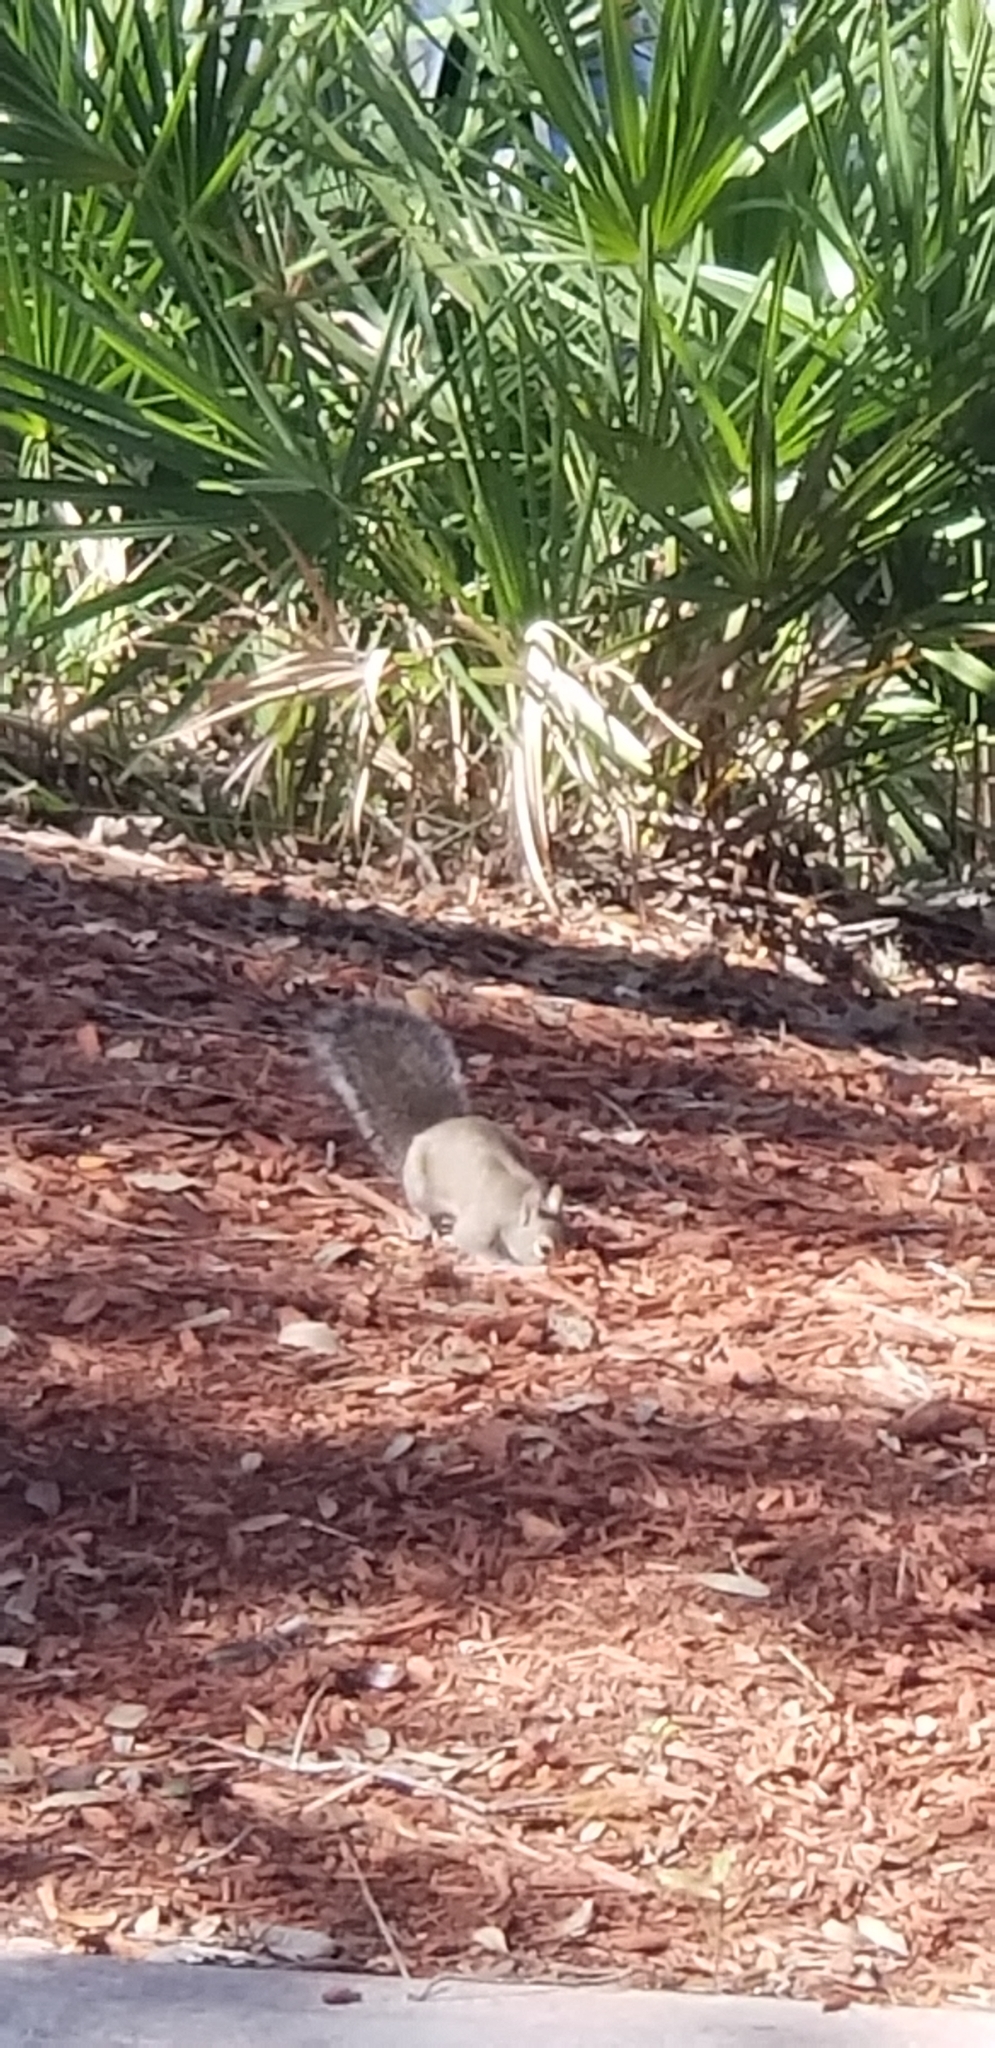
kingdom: Animalia
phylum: Chordata
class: Mammalia
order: Rodentia
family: Sciuridae
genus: Sciurus
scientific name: Sciurus carolinensis
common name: Eastern gray squirrel
